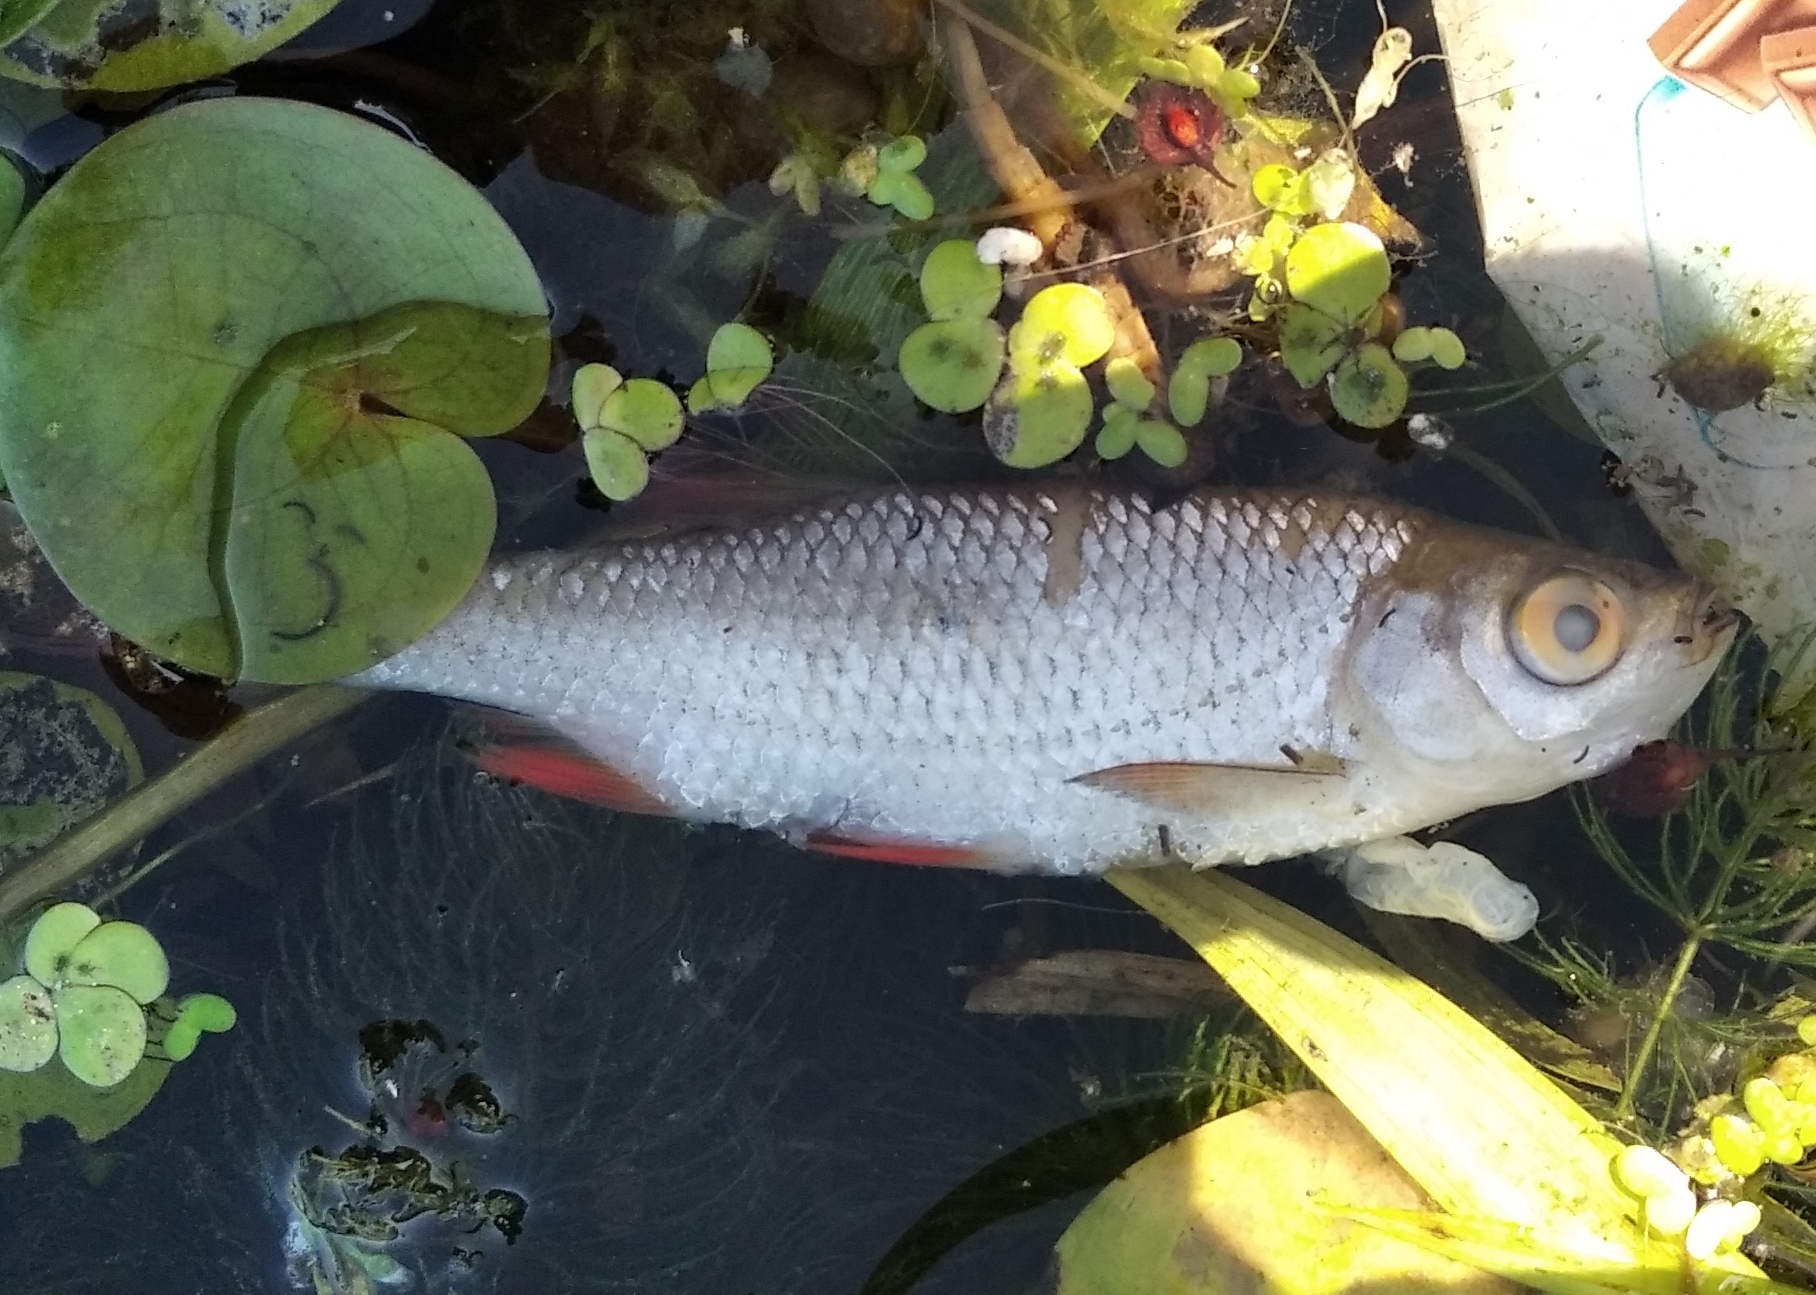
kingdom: Animalia
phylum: Chordata
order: Cypriniformes
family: Cyprinidae
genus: Scardinius
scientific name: Scardinius erythrophthalmus
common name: Rudd
